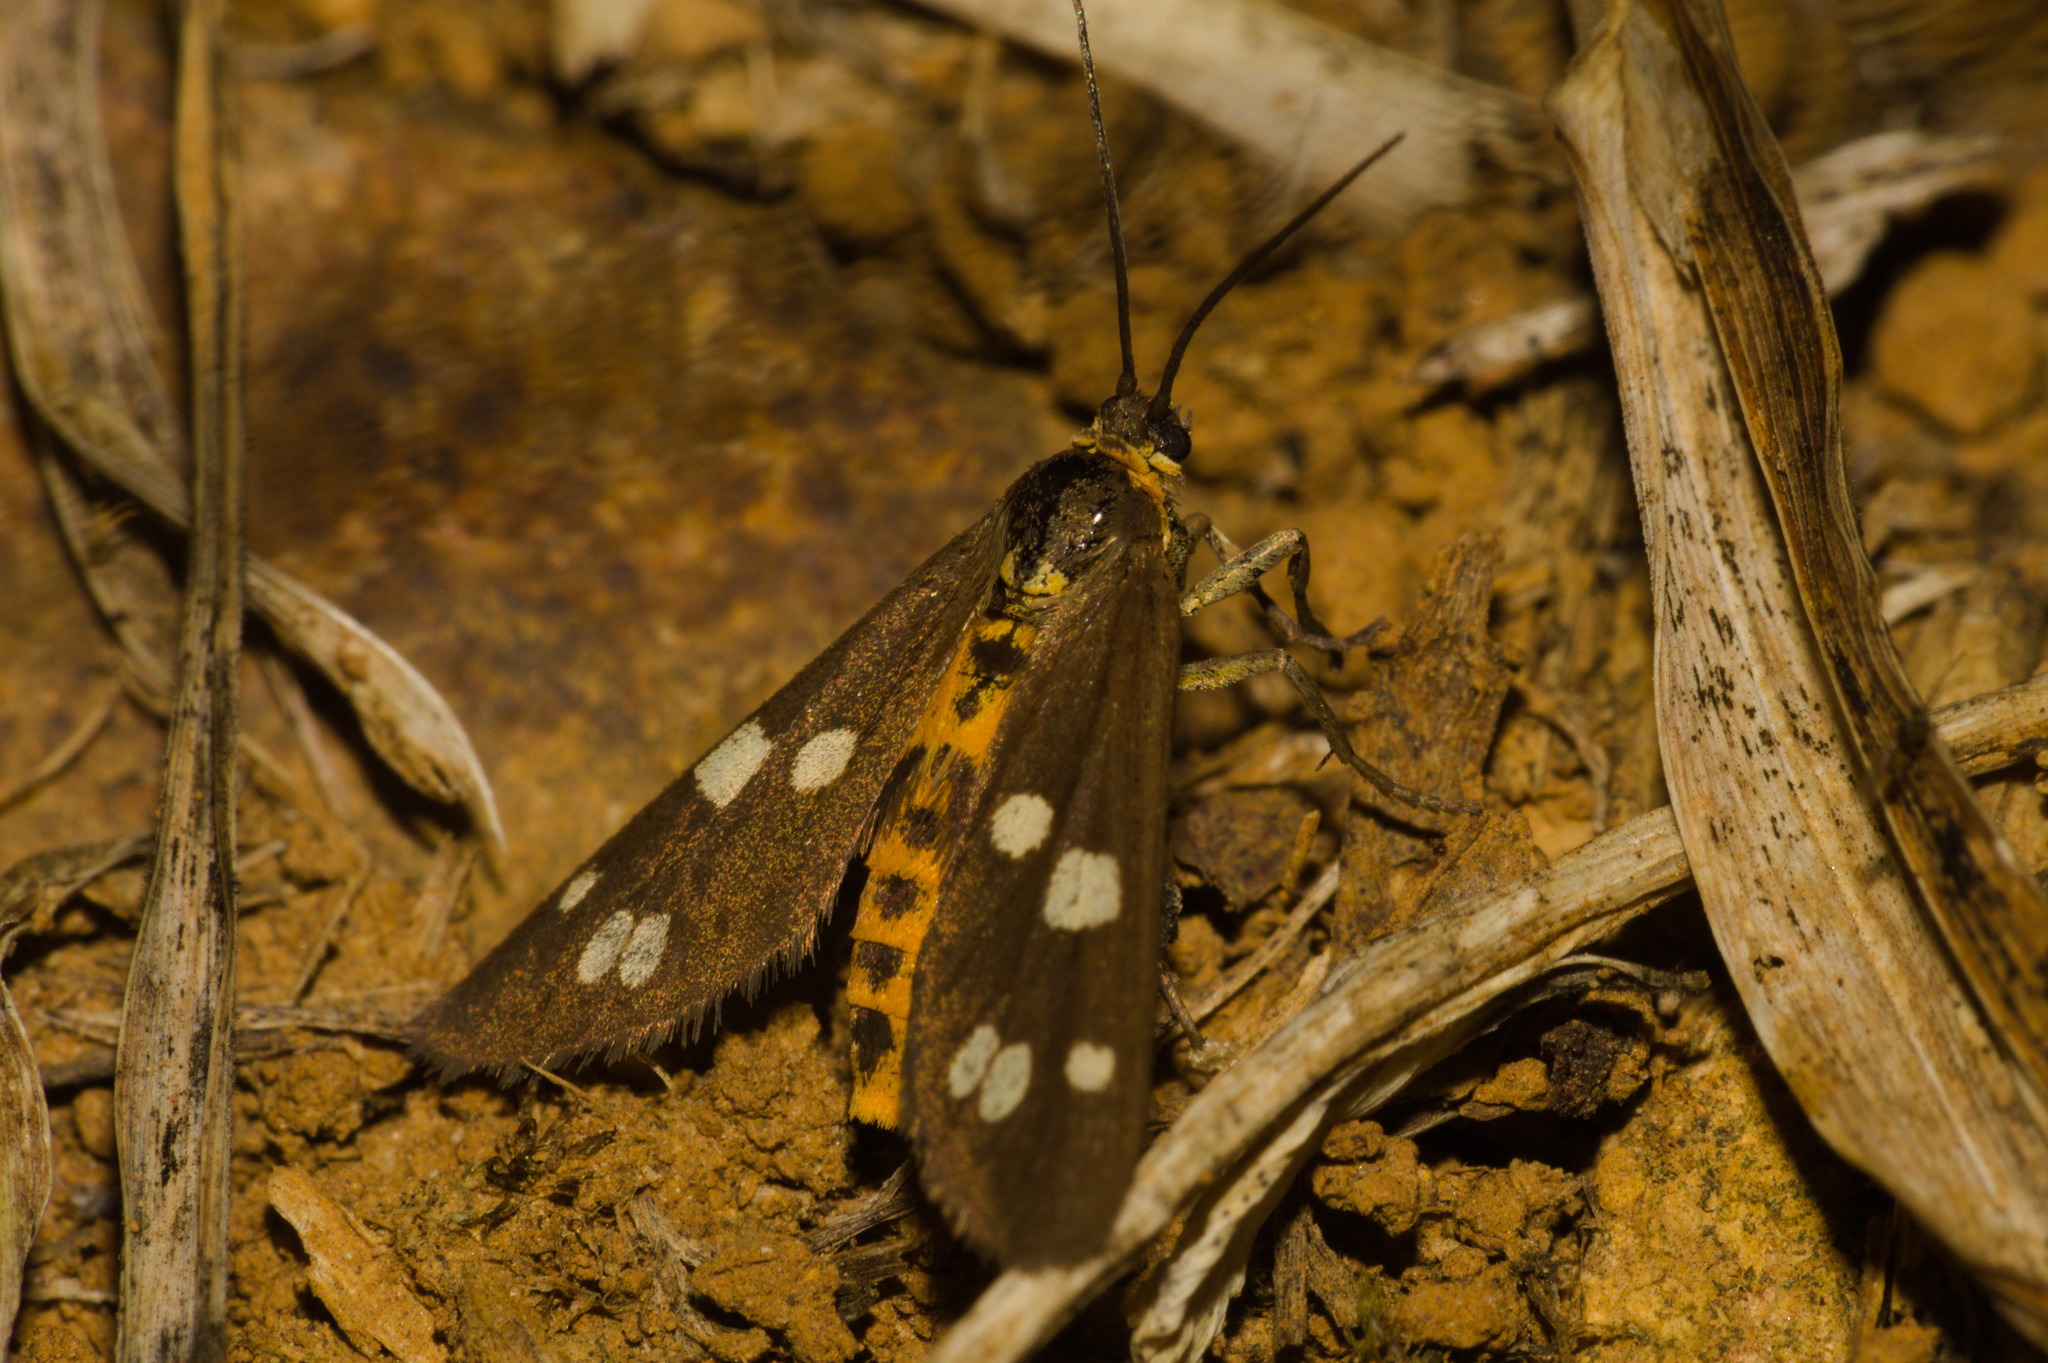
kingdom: Animalia
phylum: Arthropoda
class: Insecta
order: Lepidoptera
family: Erebidae
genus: Dysauxes
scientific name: Dysauxes punctata
